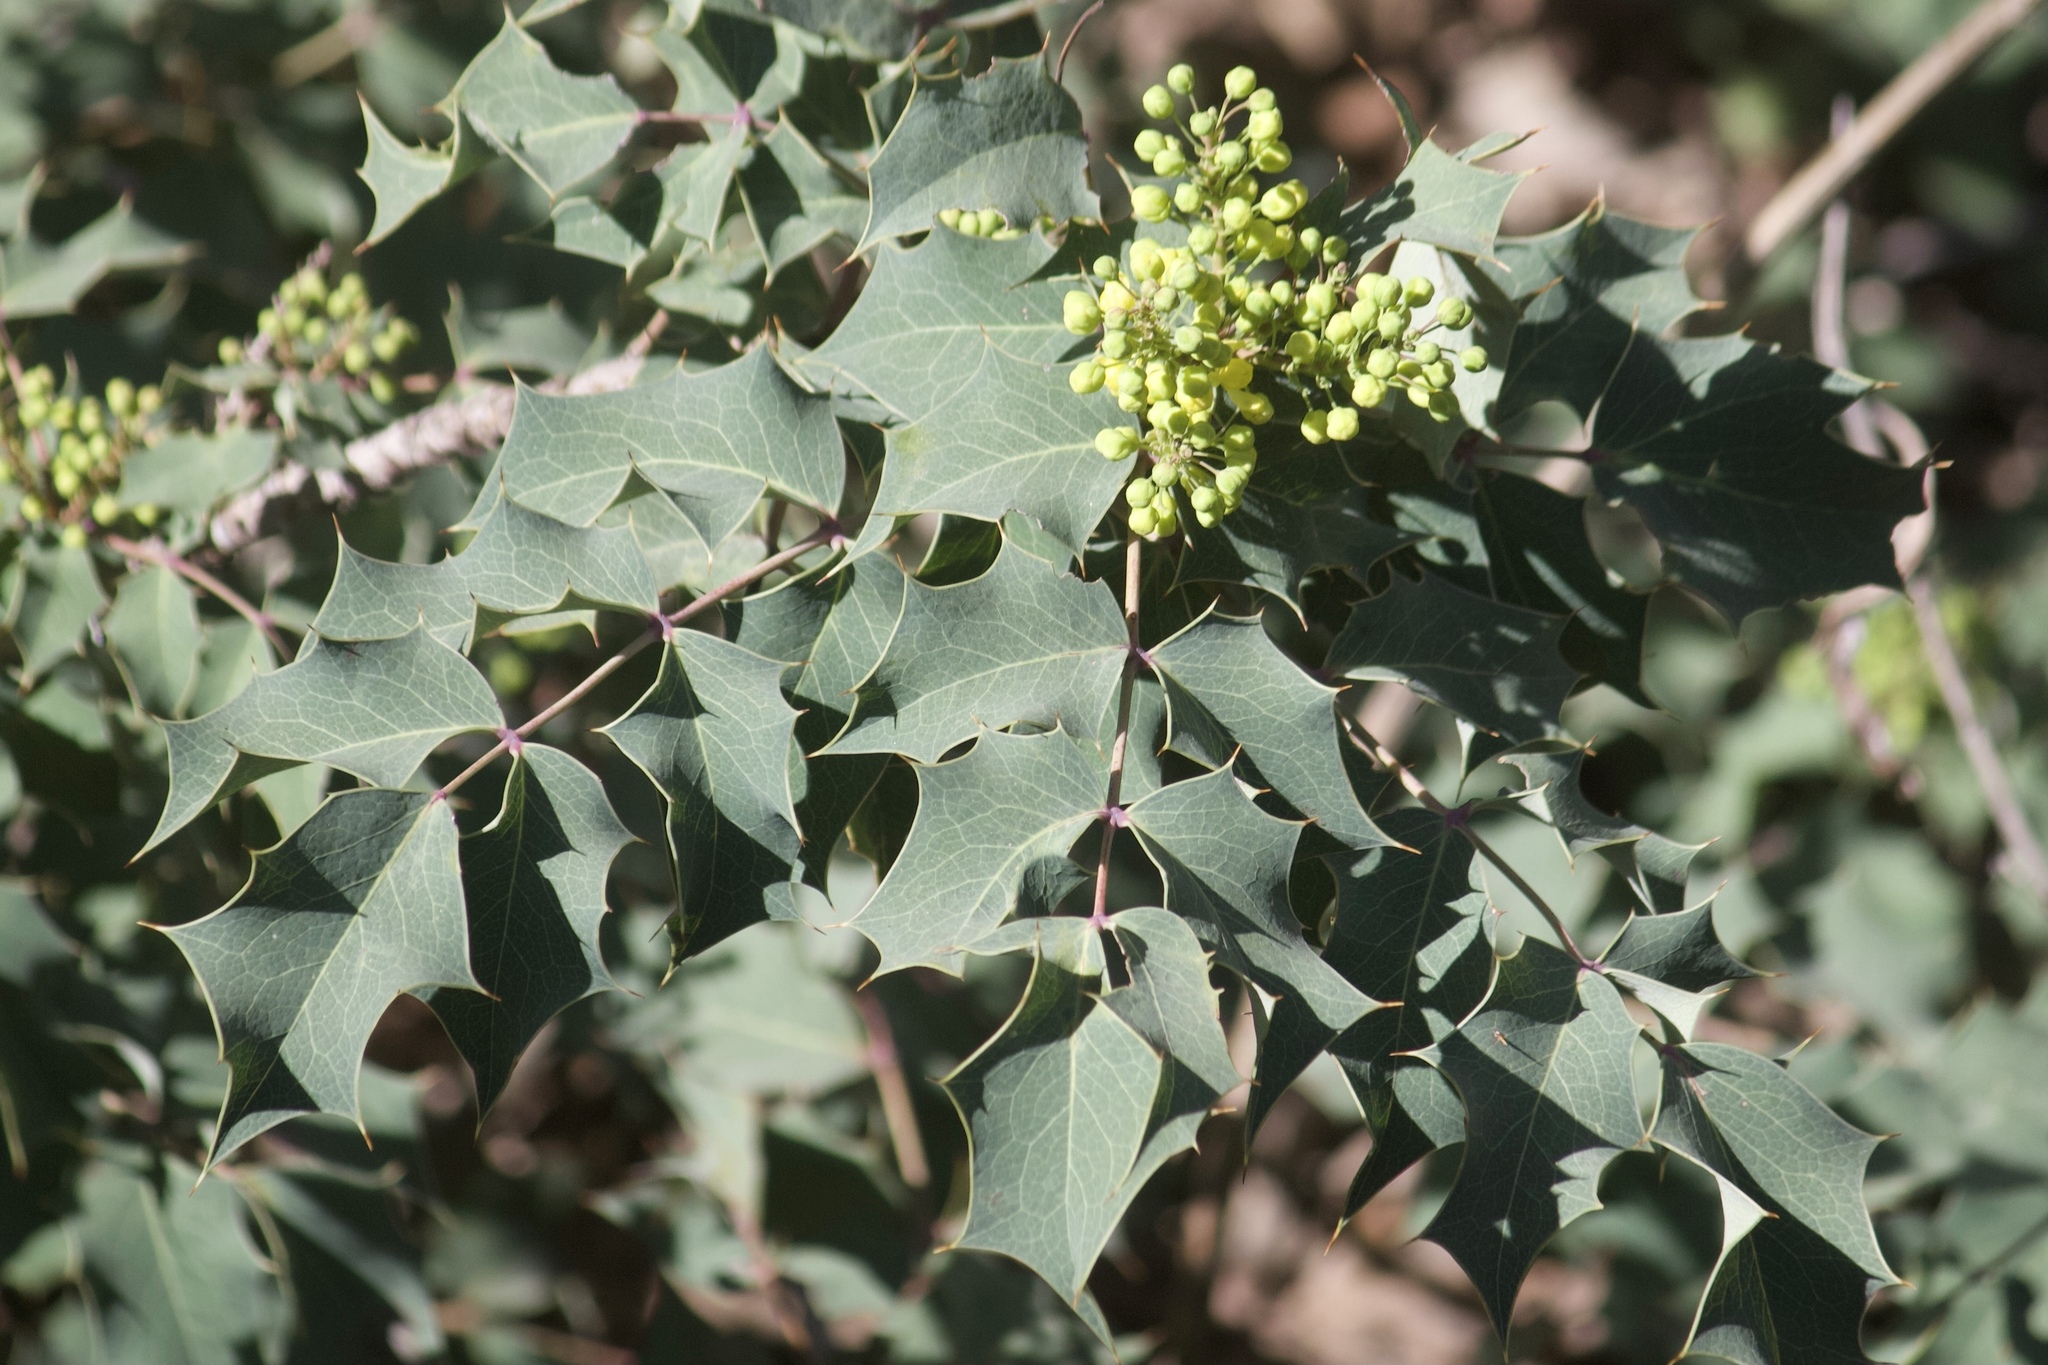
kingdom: Plantae
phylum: Tracheophyta
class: Magnoliopsida
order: Ranunculales
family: Berberidaceae
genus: Mahonia
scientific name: Mahonia dictyota
